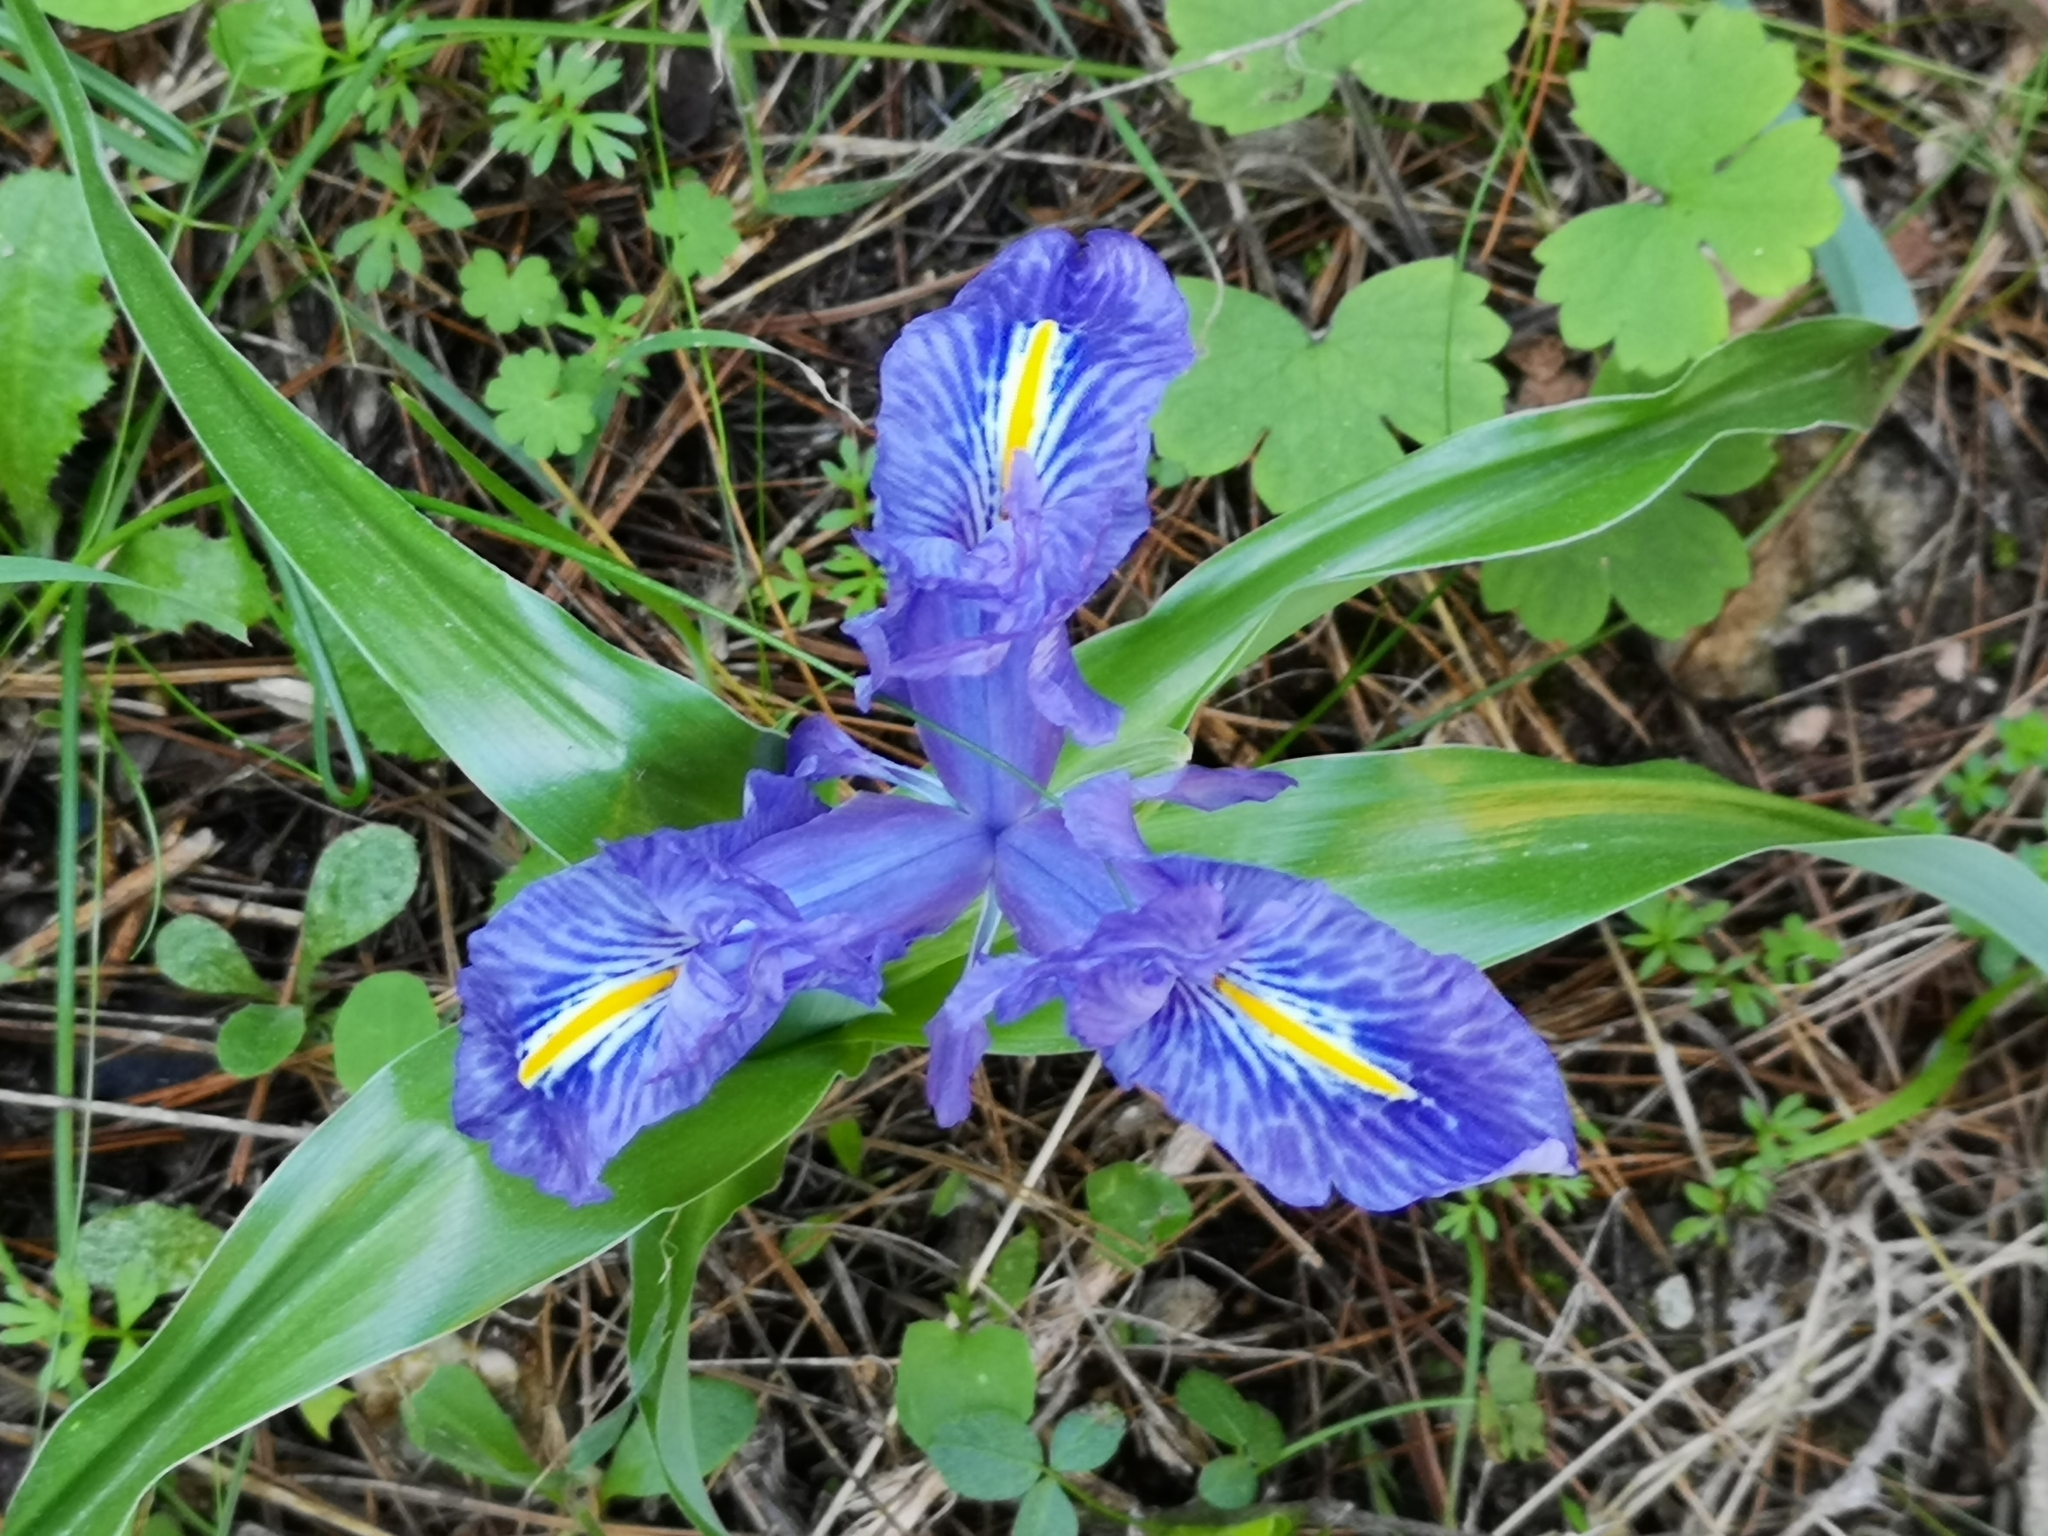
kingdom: Plantae
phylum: Tracheophyta
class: Liliopsida
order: Asparagales
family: Iridaceae
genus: Iris
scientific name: Iris planifolia
